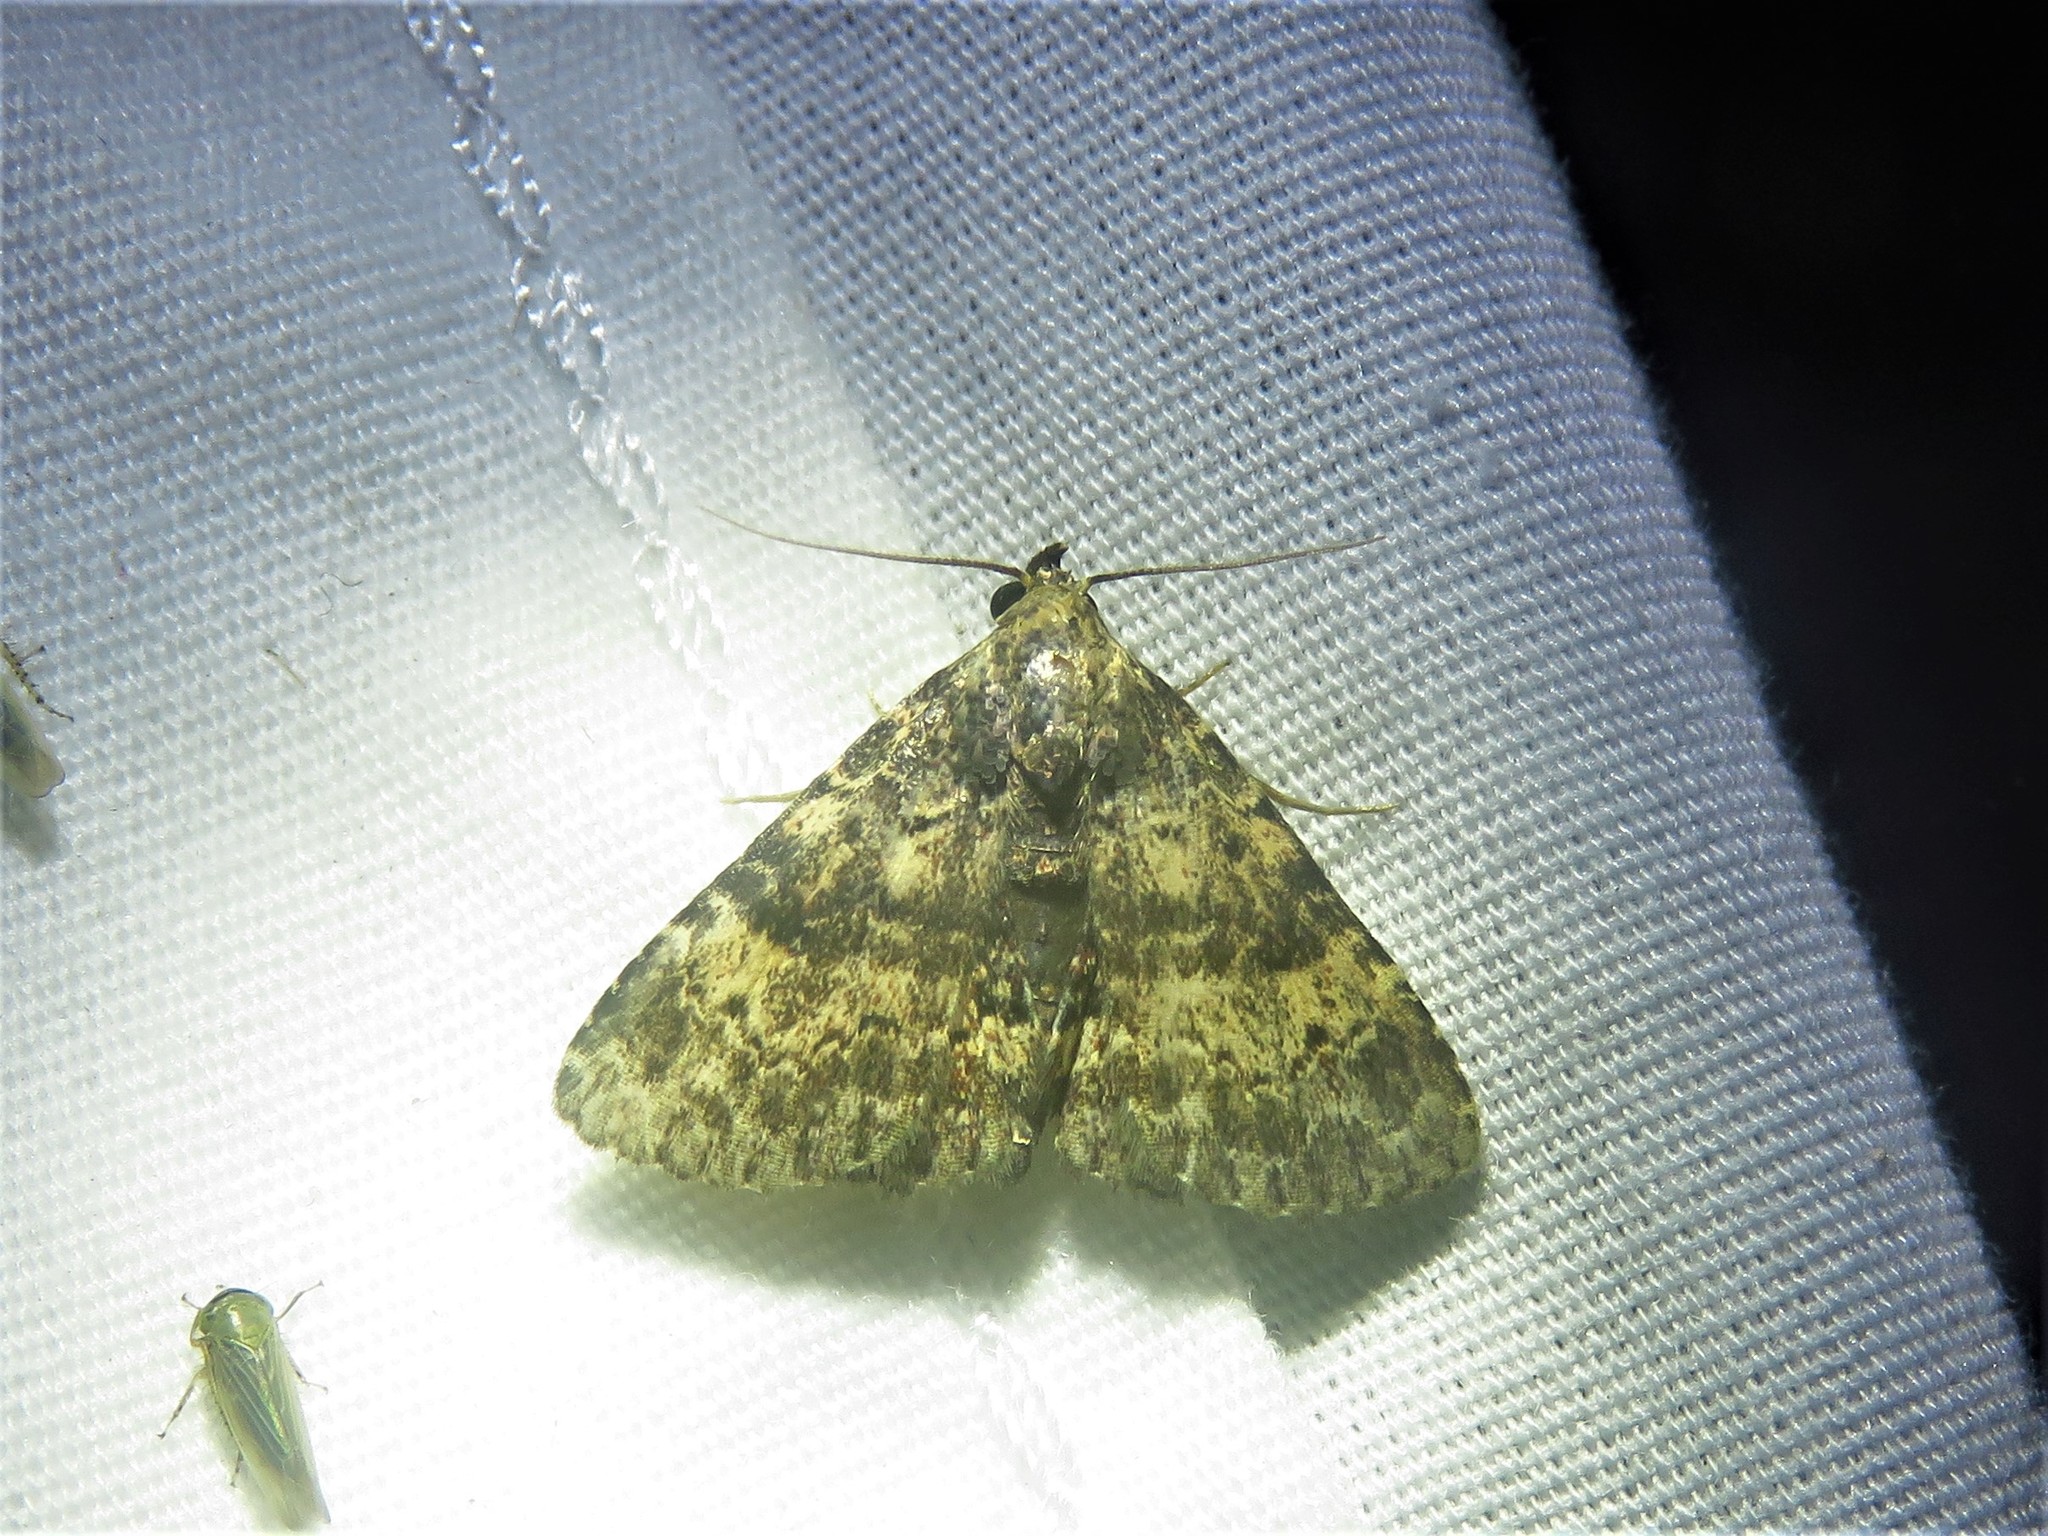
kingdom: Animalia
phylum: Arthropoda
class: Insecta
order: Lepidoptera
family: Erebidae
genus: Metalectra
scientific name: Metalectra diabolica
